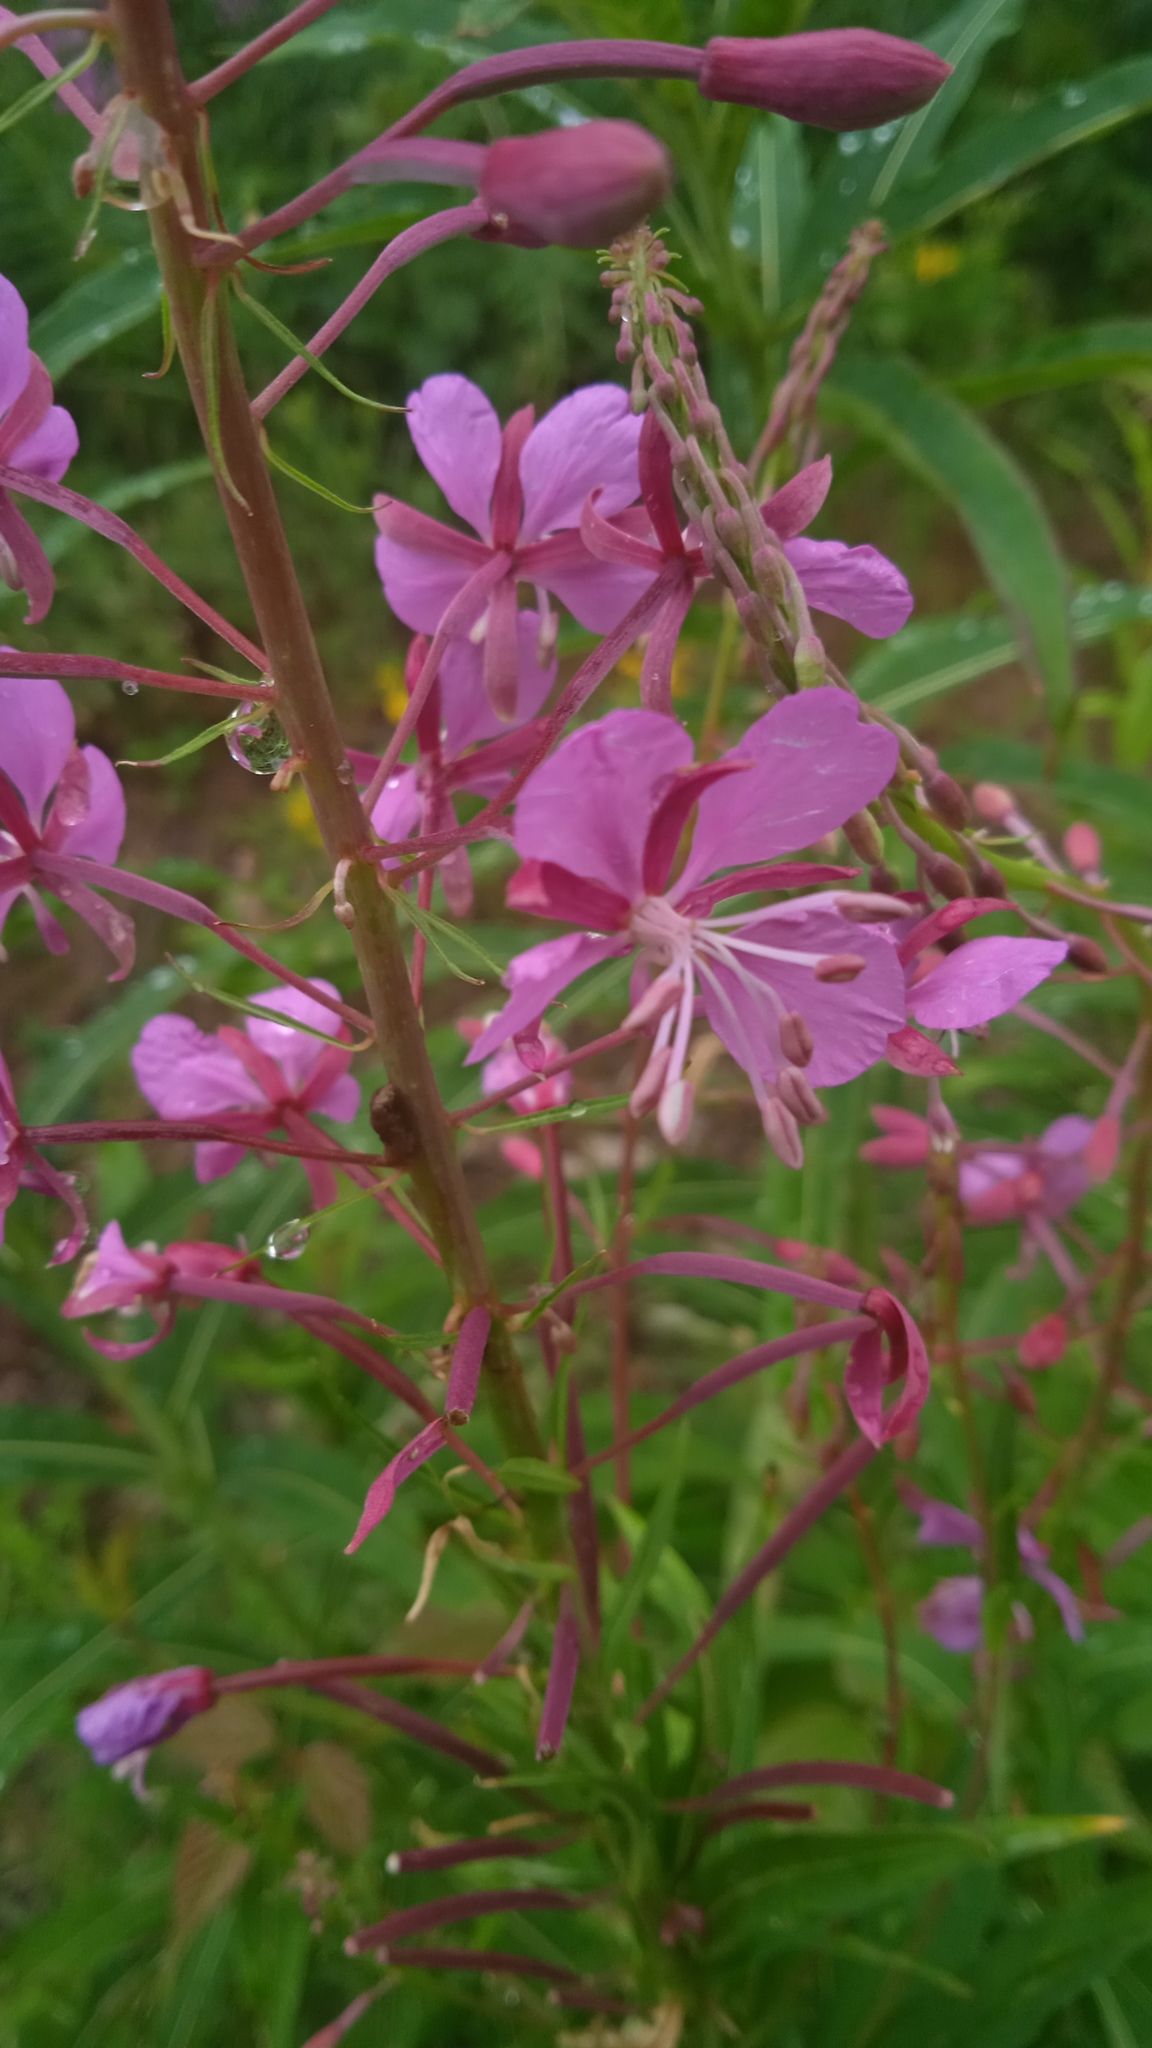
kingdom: Plantae
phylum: Tracheophyta
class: Magnoliopsida
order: Myrtales
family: Onagraceae
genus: Chamaenerion
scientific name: Chamaenerion angustifolium
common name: Fireweed
